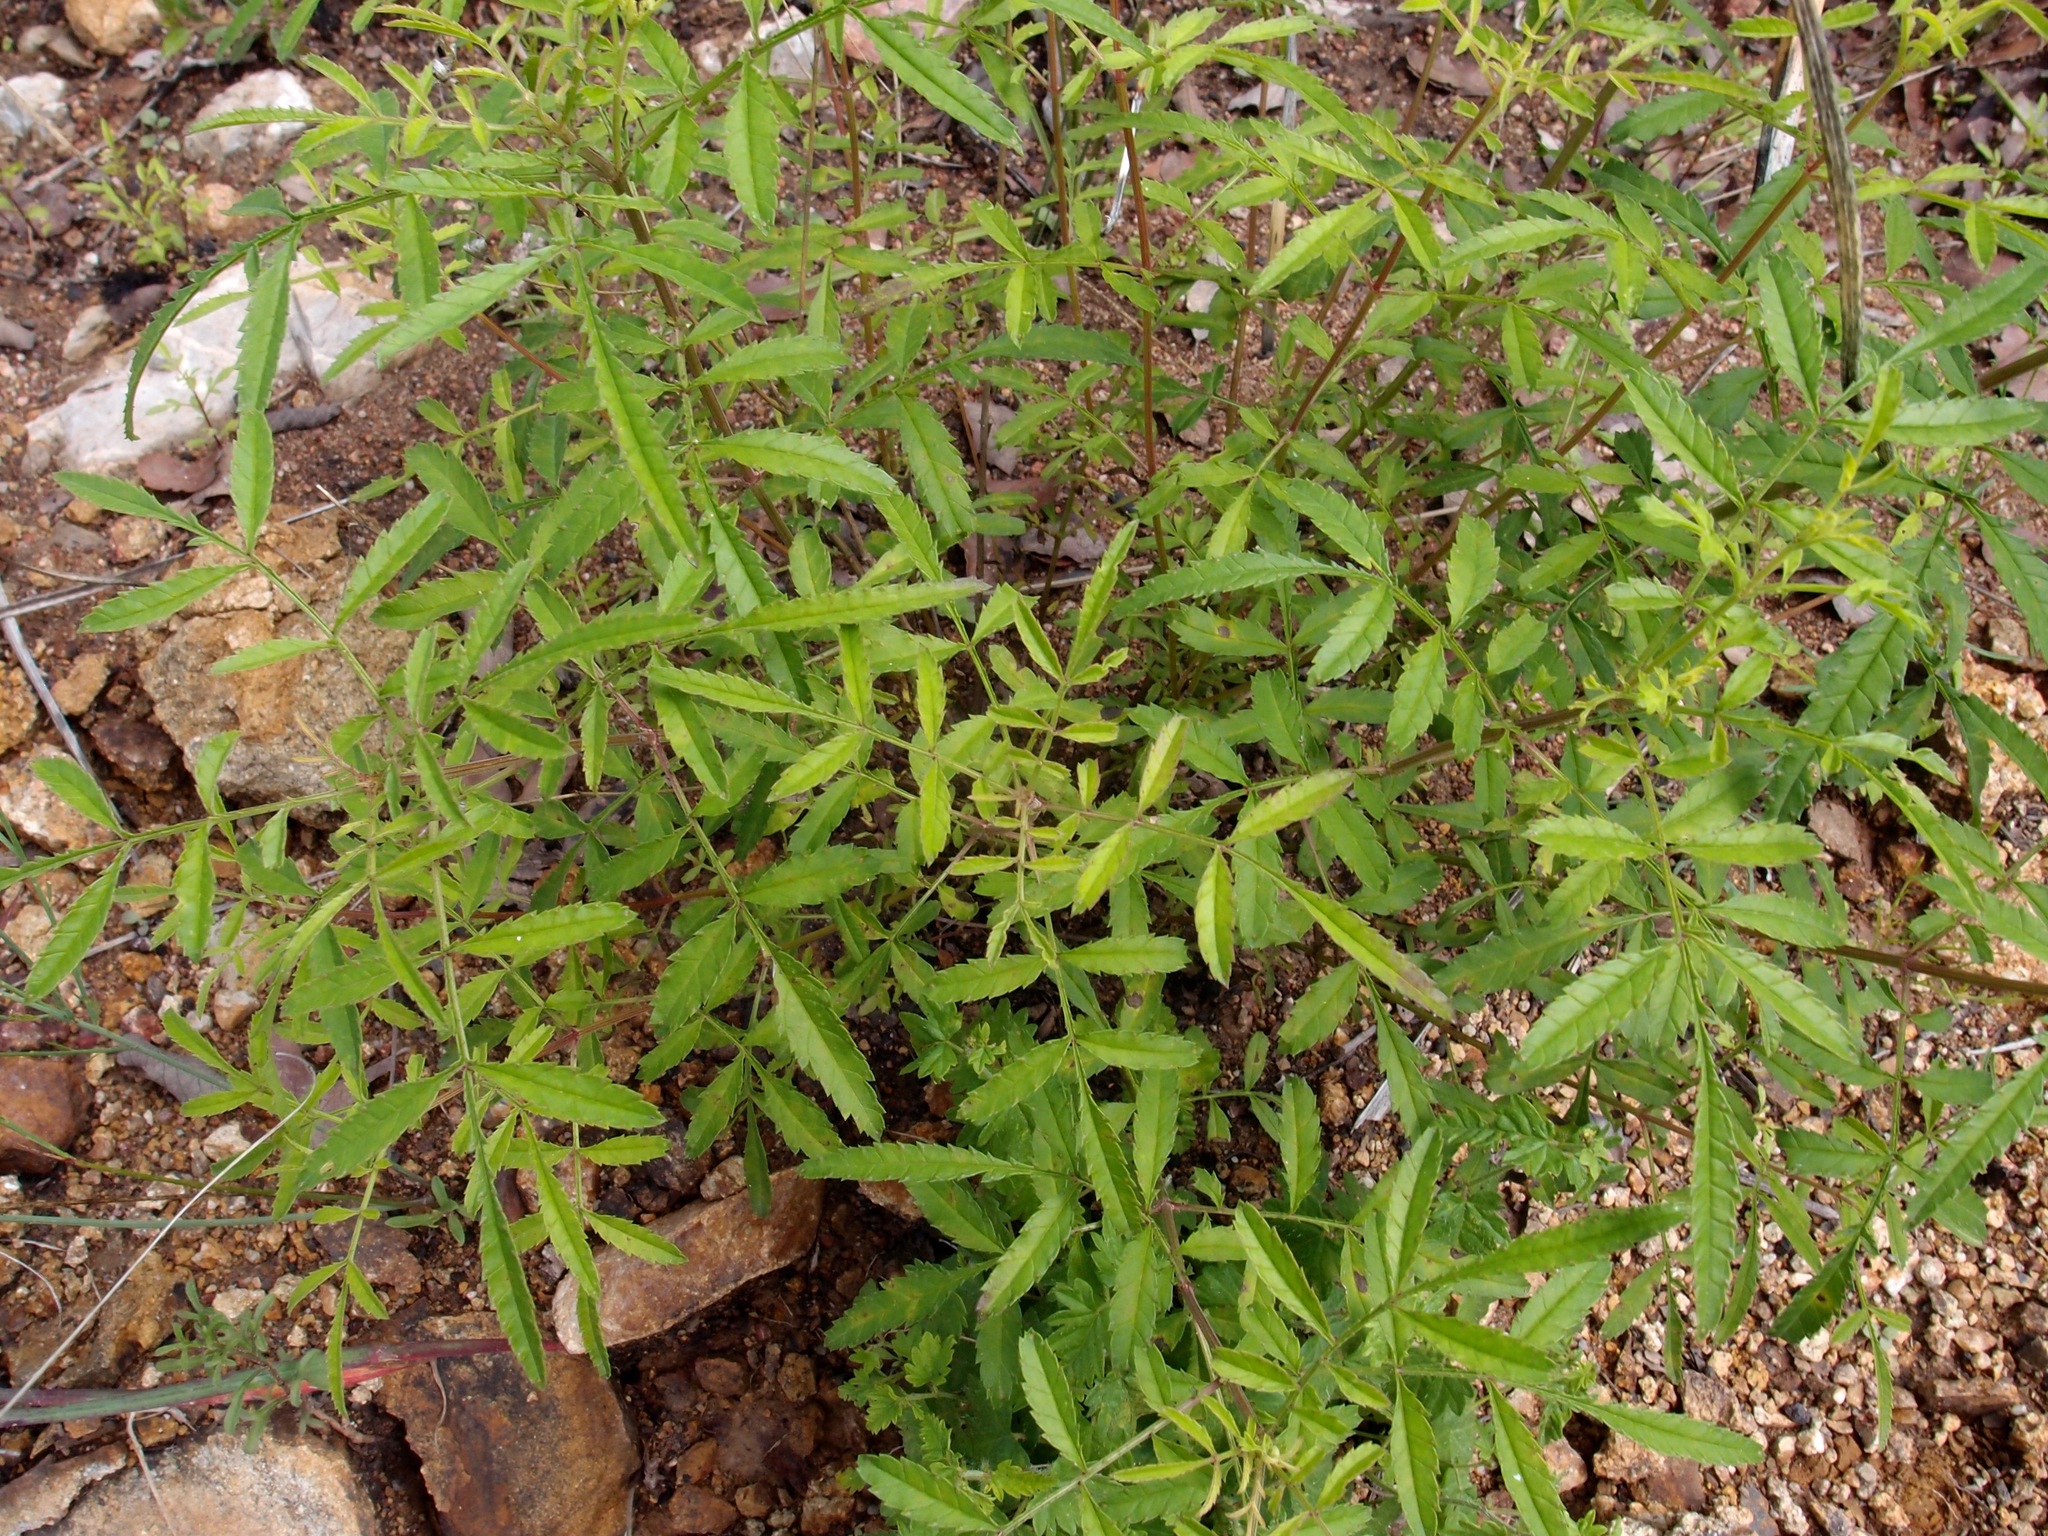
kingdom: Plantae
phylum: Tracheophyta
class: Magnoliopsida
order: Asterales
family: Asteraceae
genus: Tagetes
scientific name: Tagetes lemmonii
